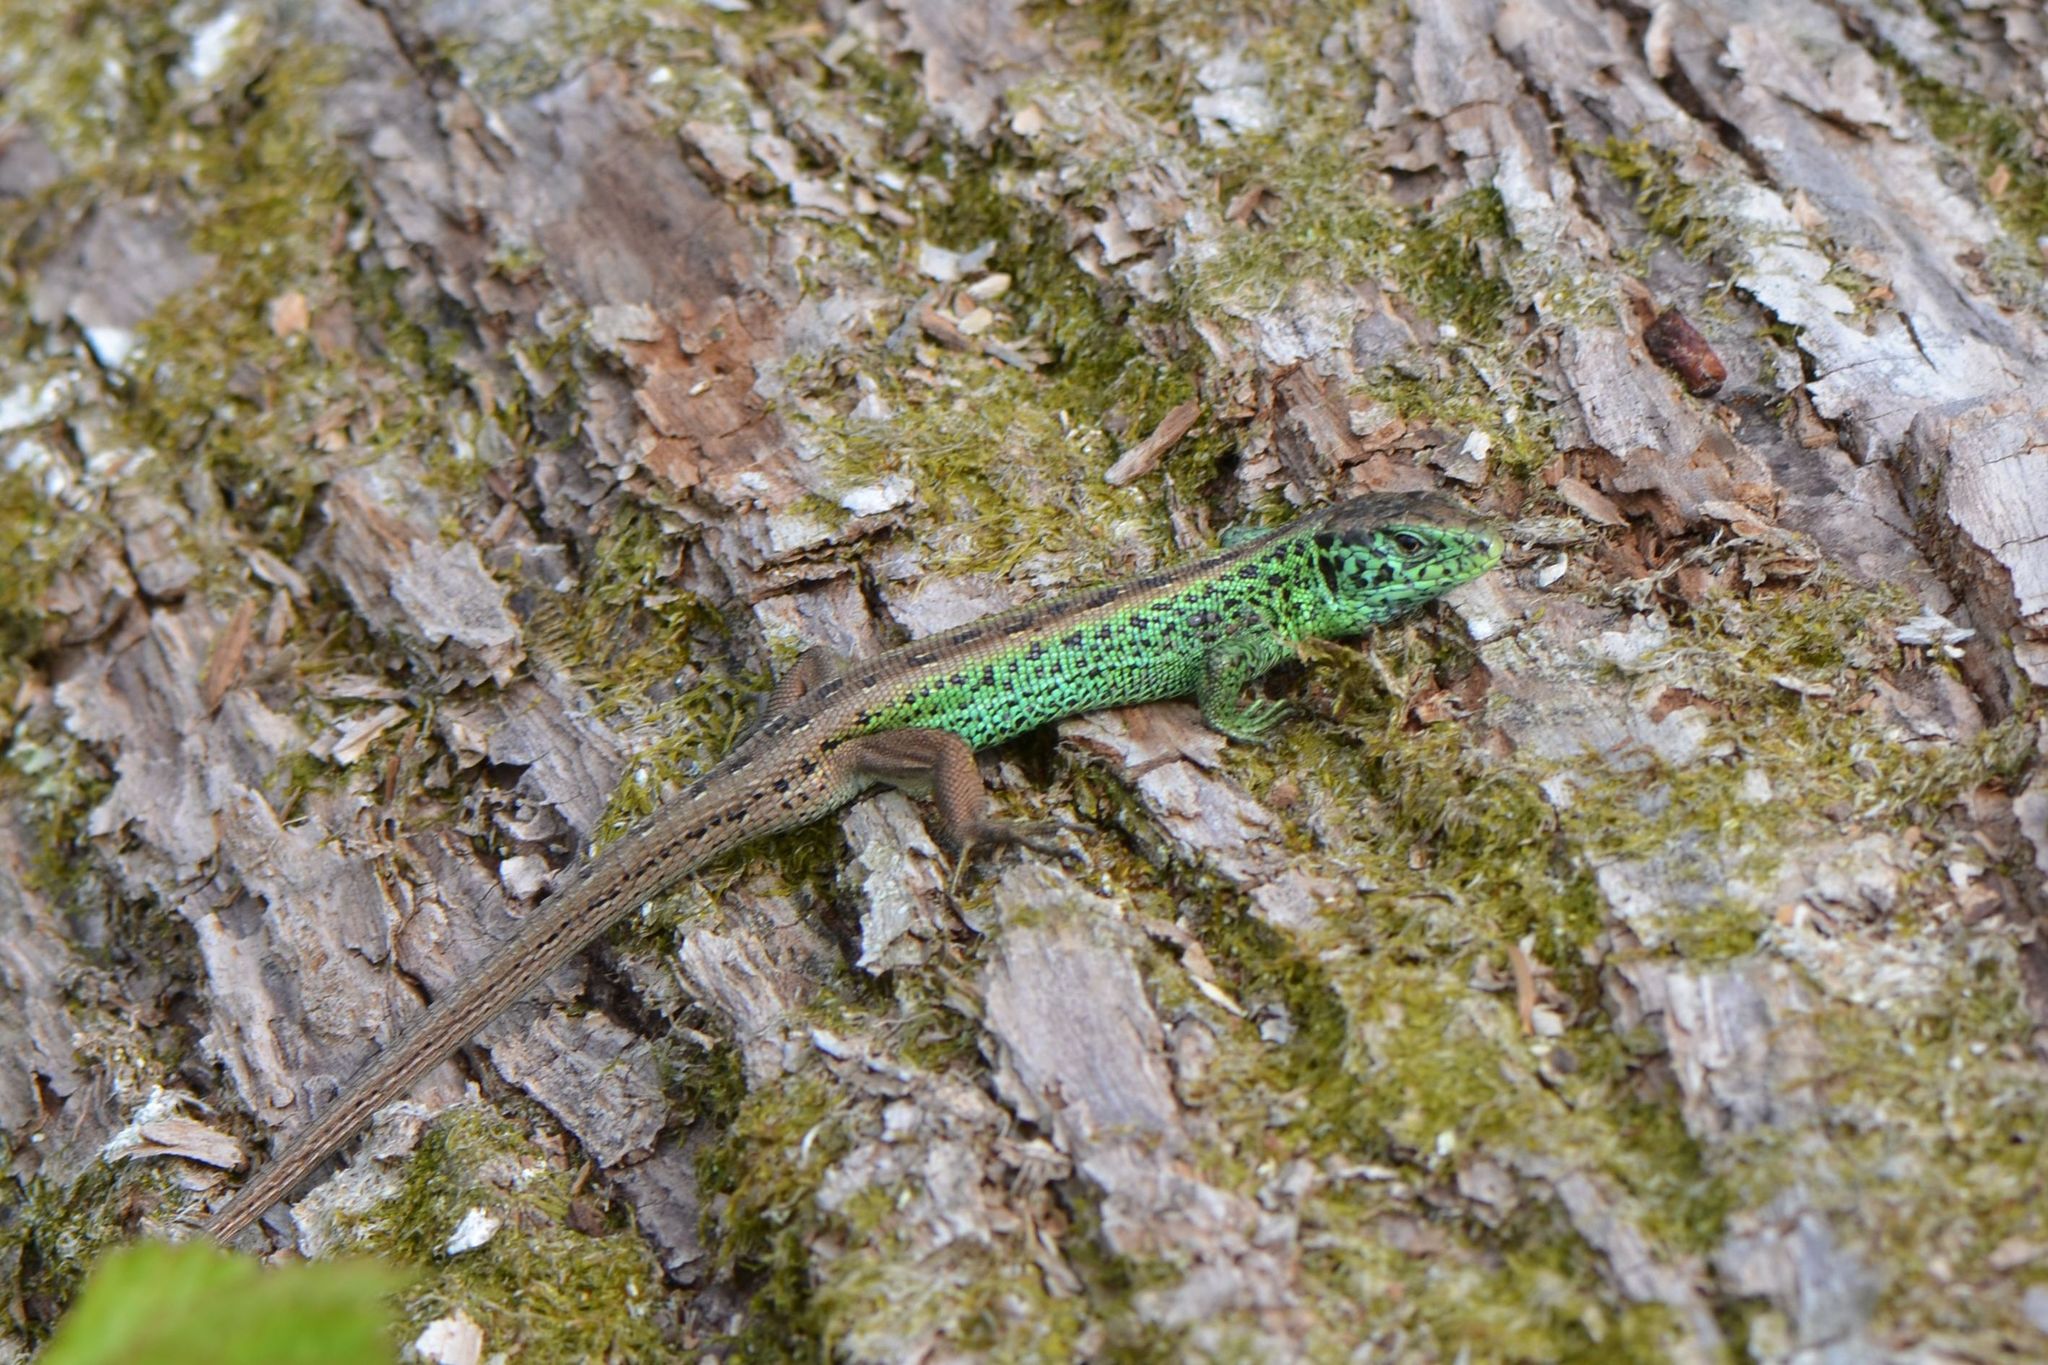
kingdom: Animalia
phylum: Chordata
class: Squamata
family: Lacertidae
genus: Lacerta
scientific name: Lacerta agilis
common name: Sand lizard
